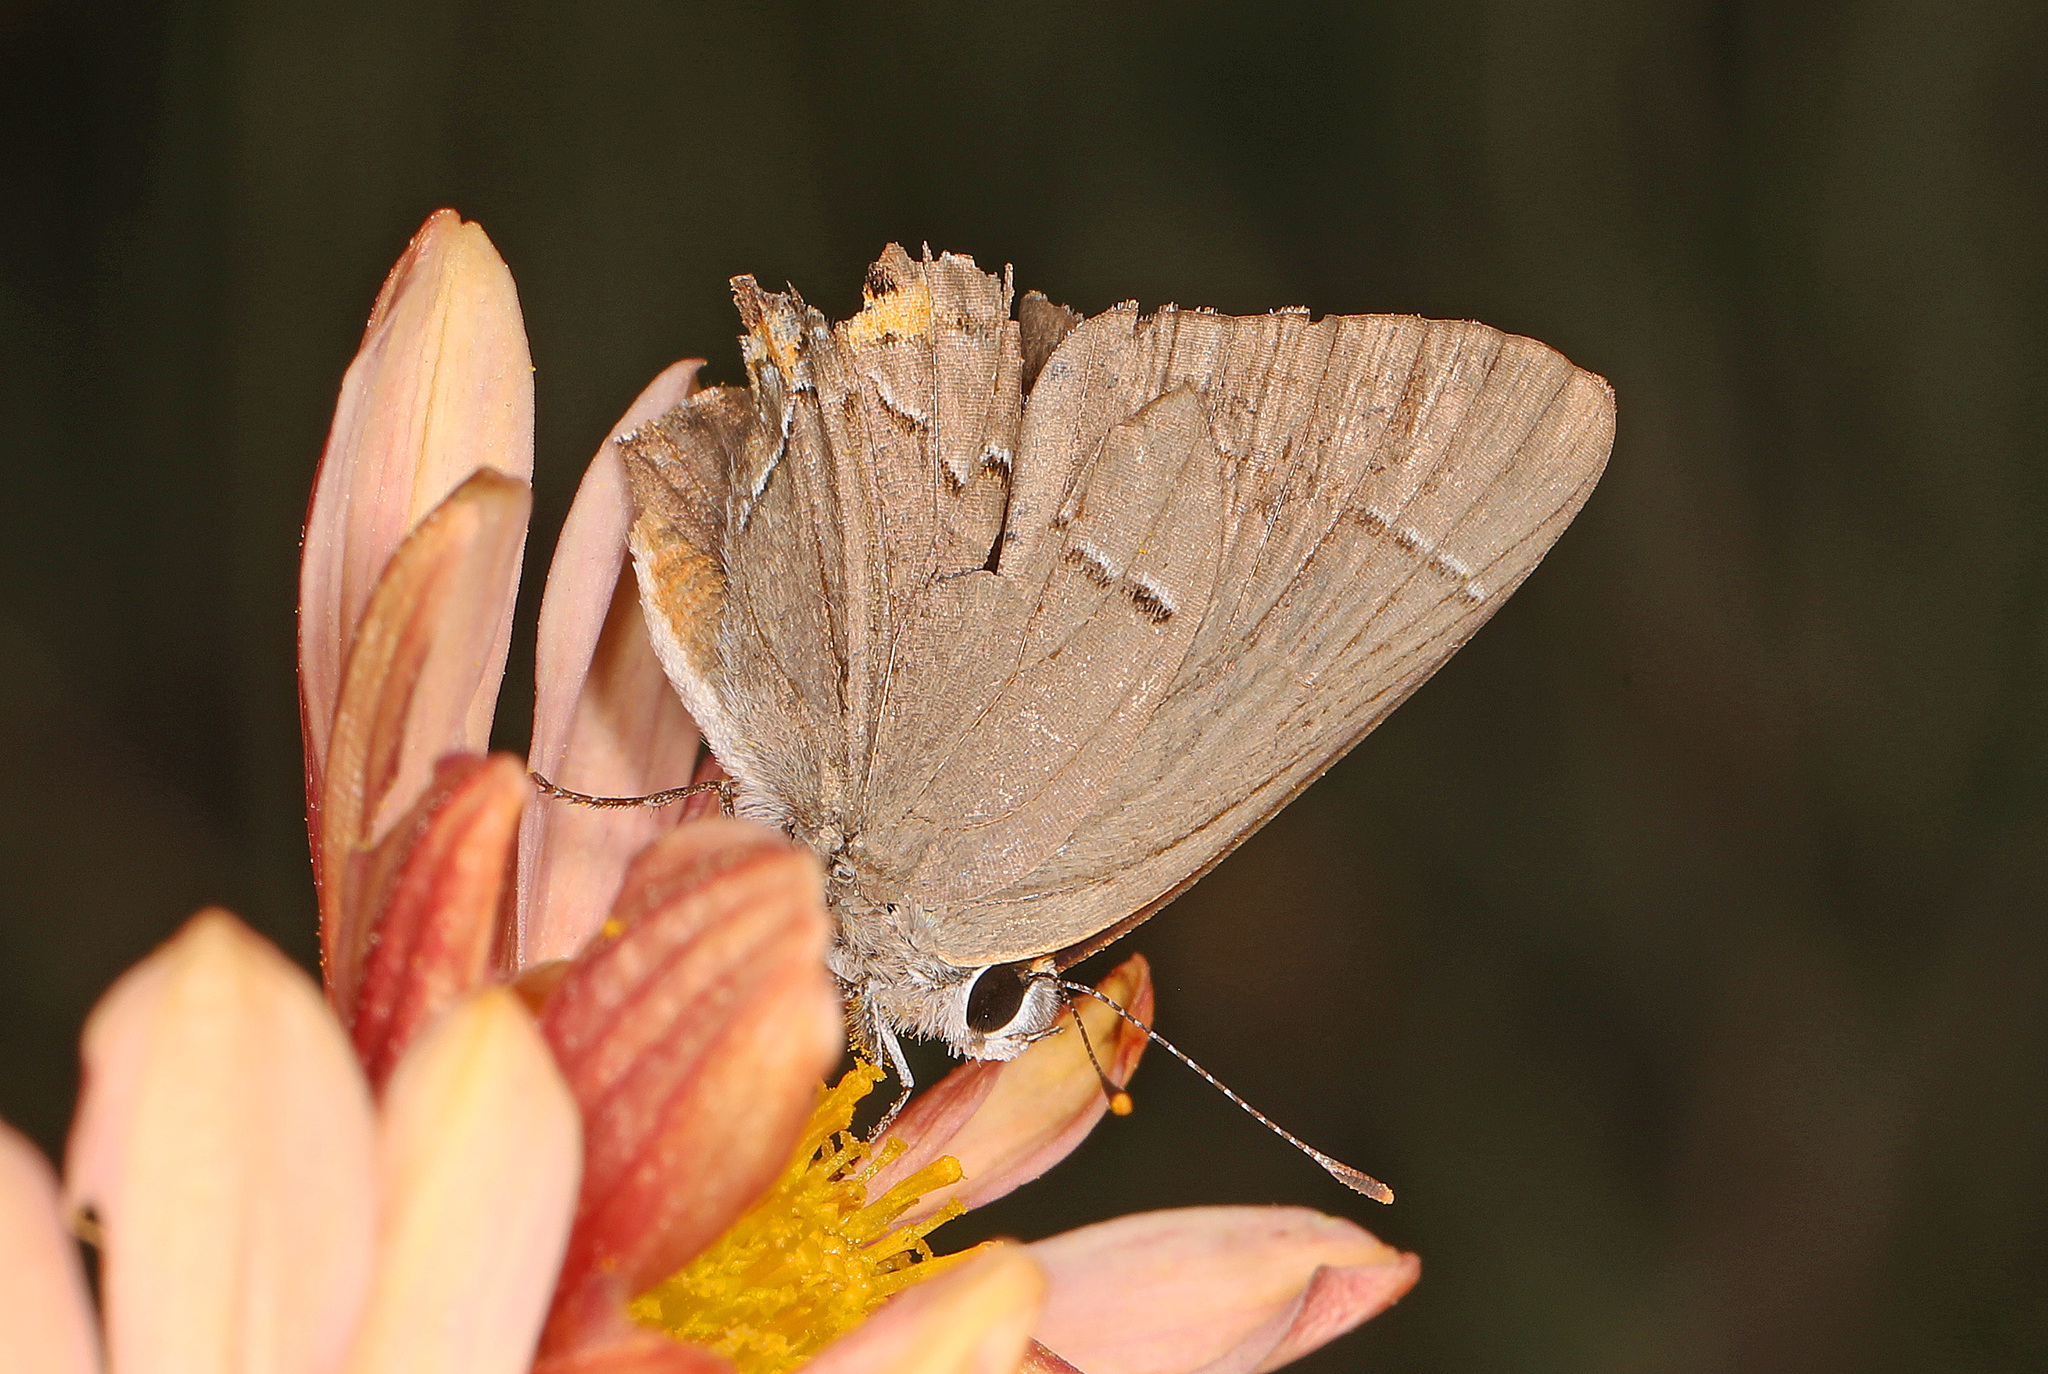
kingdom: Animalia
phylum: Arthropoda
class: Insecta
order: Lepidoptera
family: Lycaenidae
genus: Strymon
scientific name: Strymon melinus
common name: Gray hairstreak
